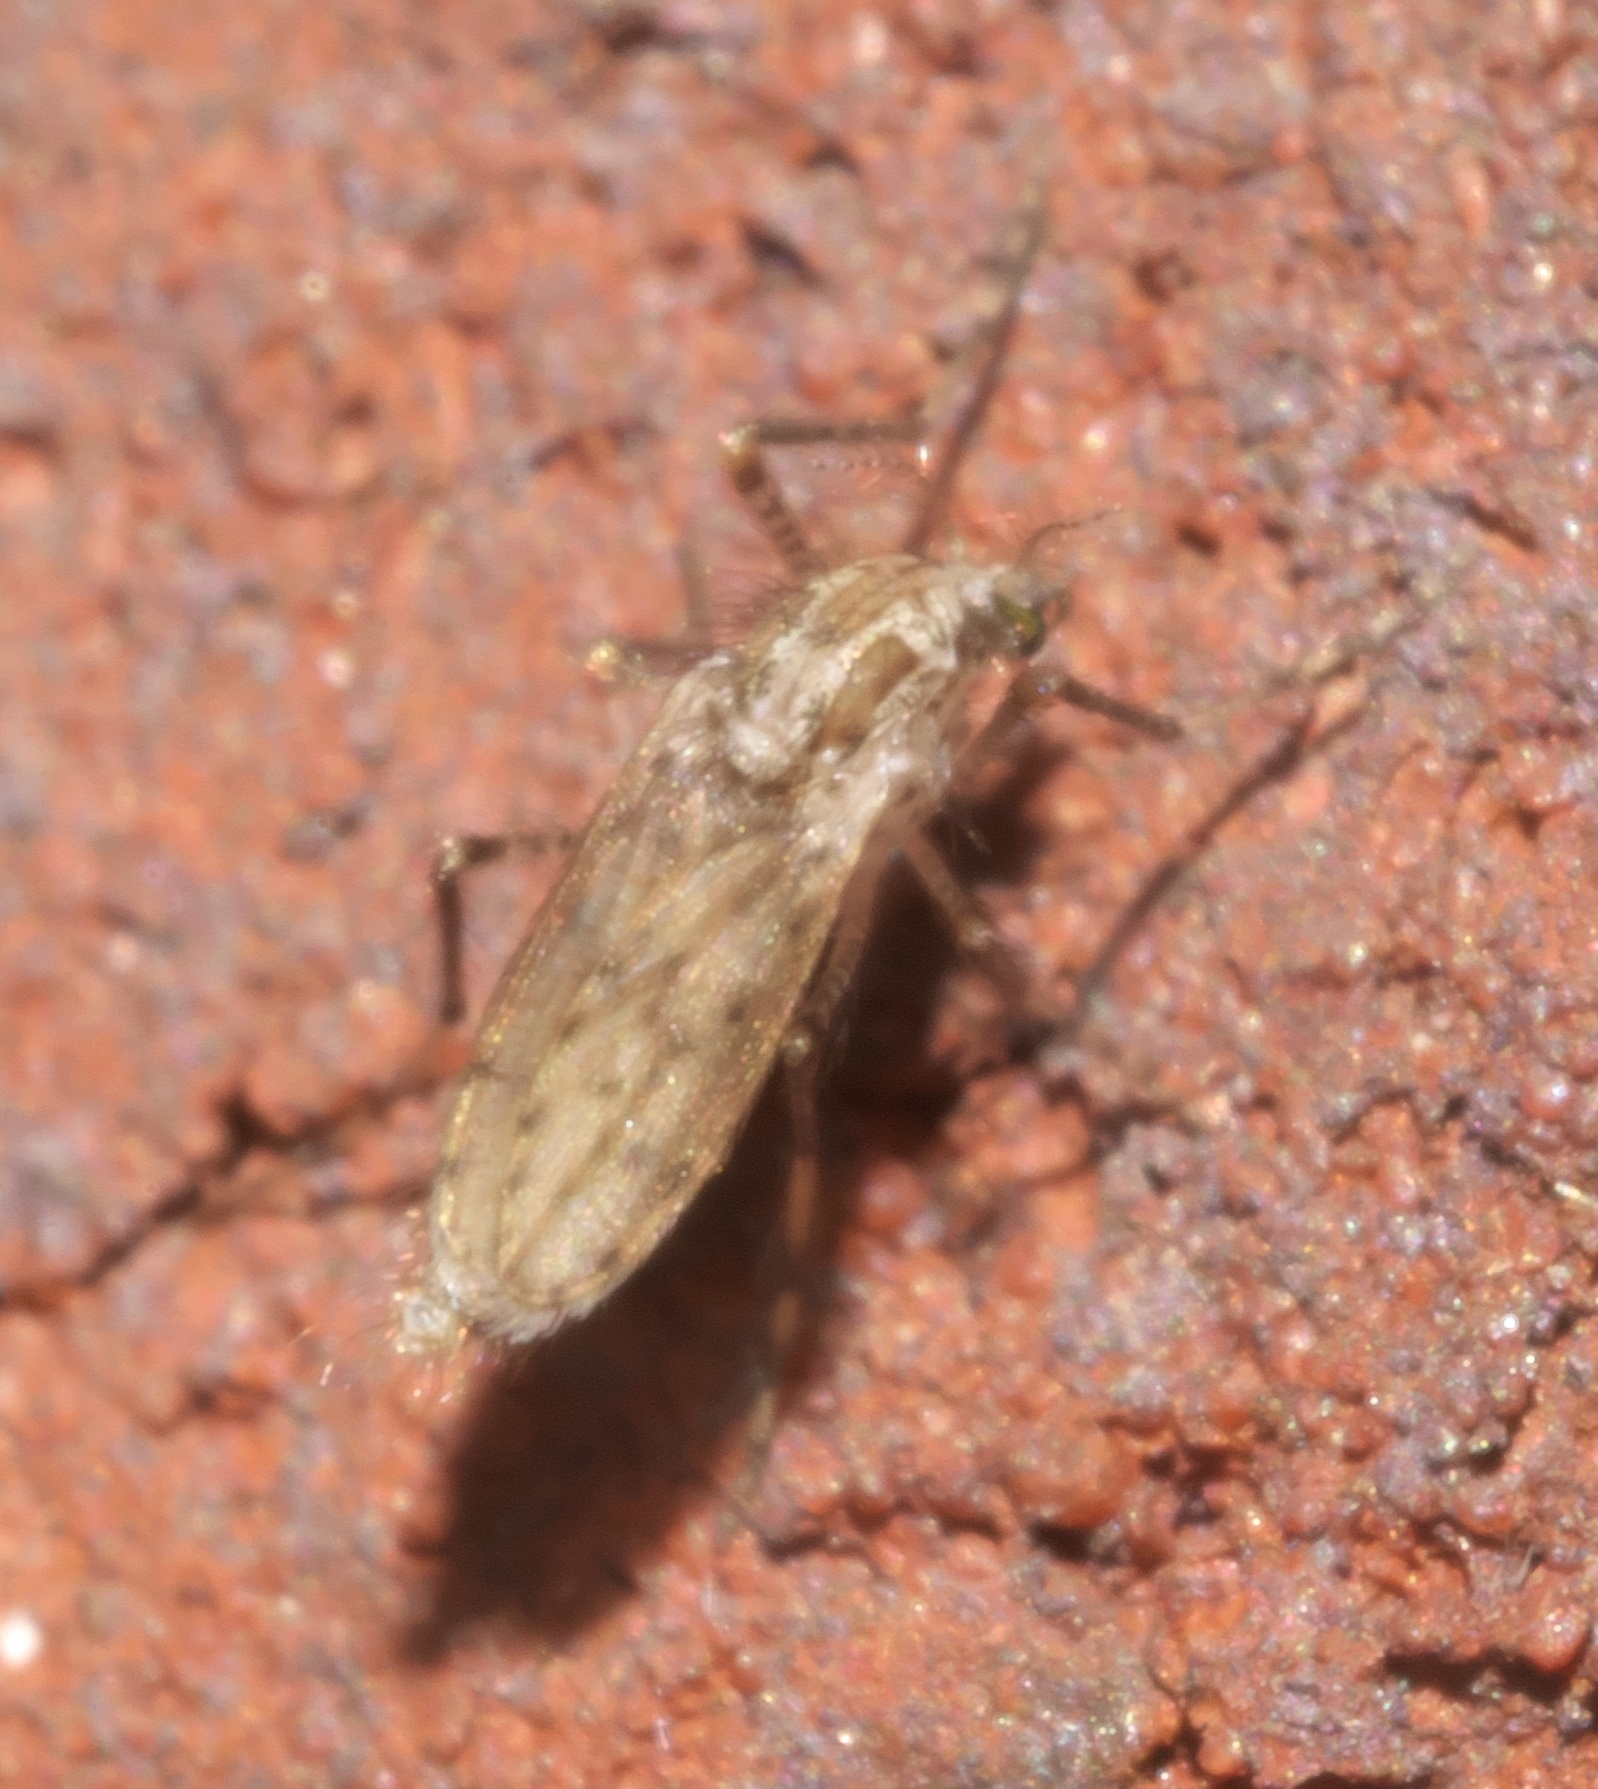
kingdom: Animalia
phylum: Arthropoda
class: Insecta
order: Diptera
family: Chaoboridae
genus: Chaoborus
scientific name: Chaoborus punctipennis
